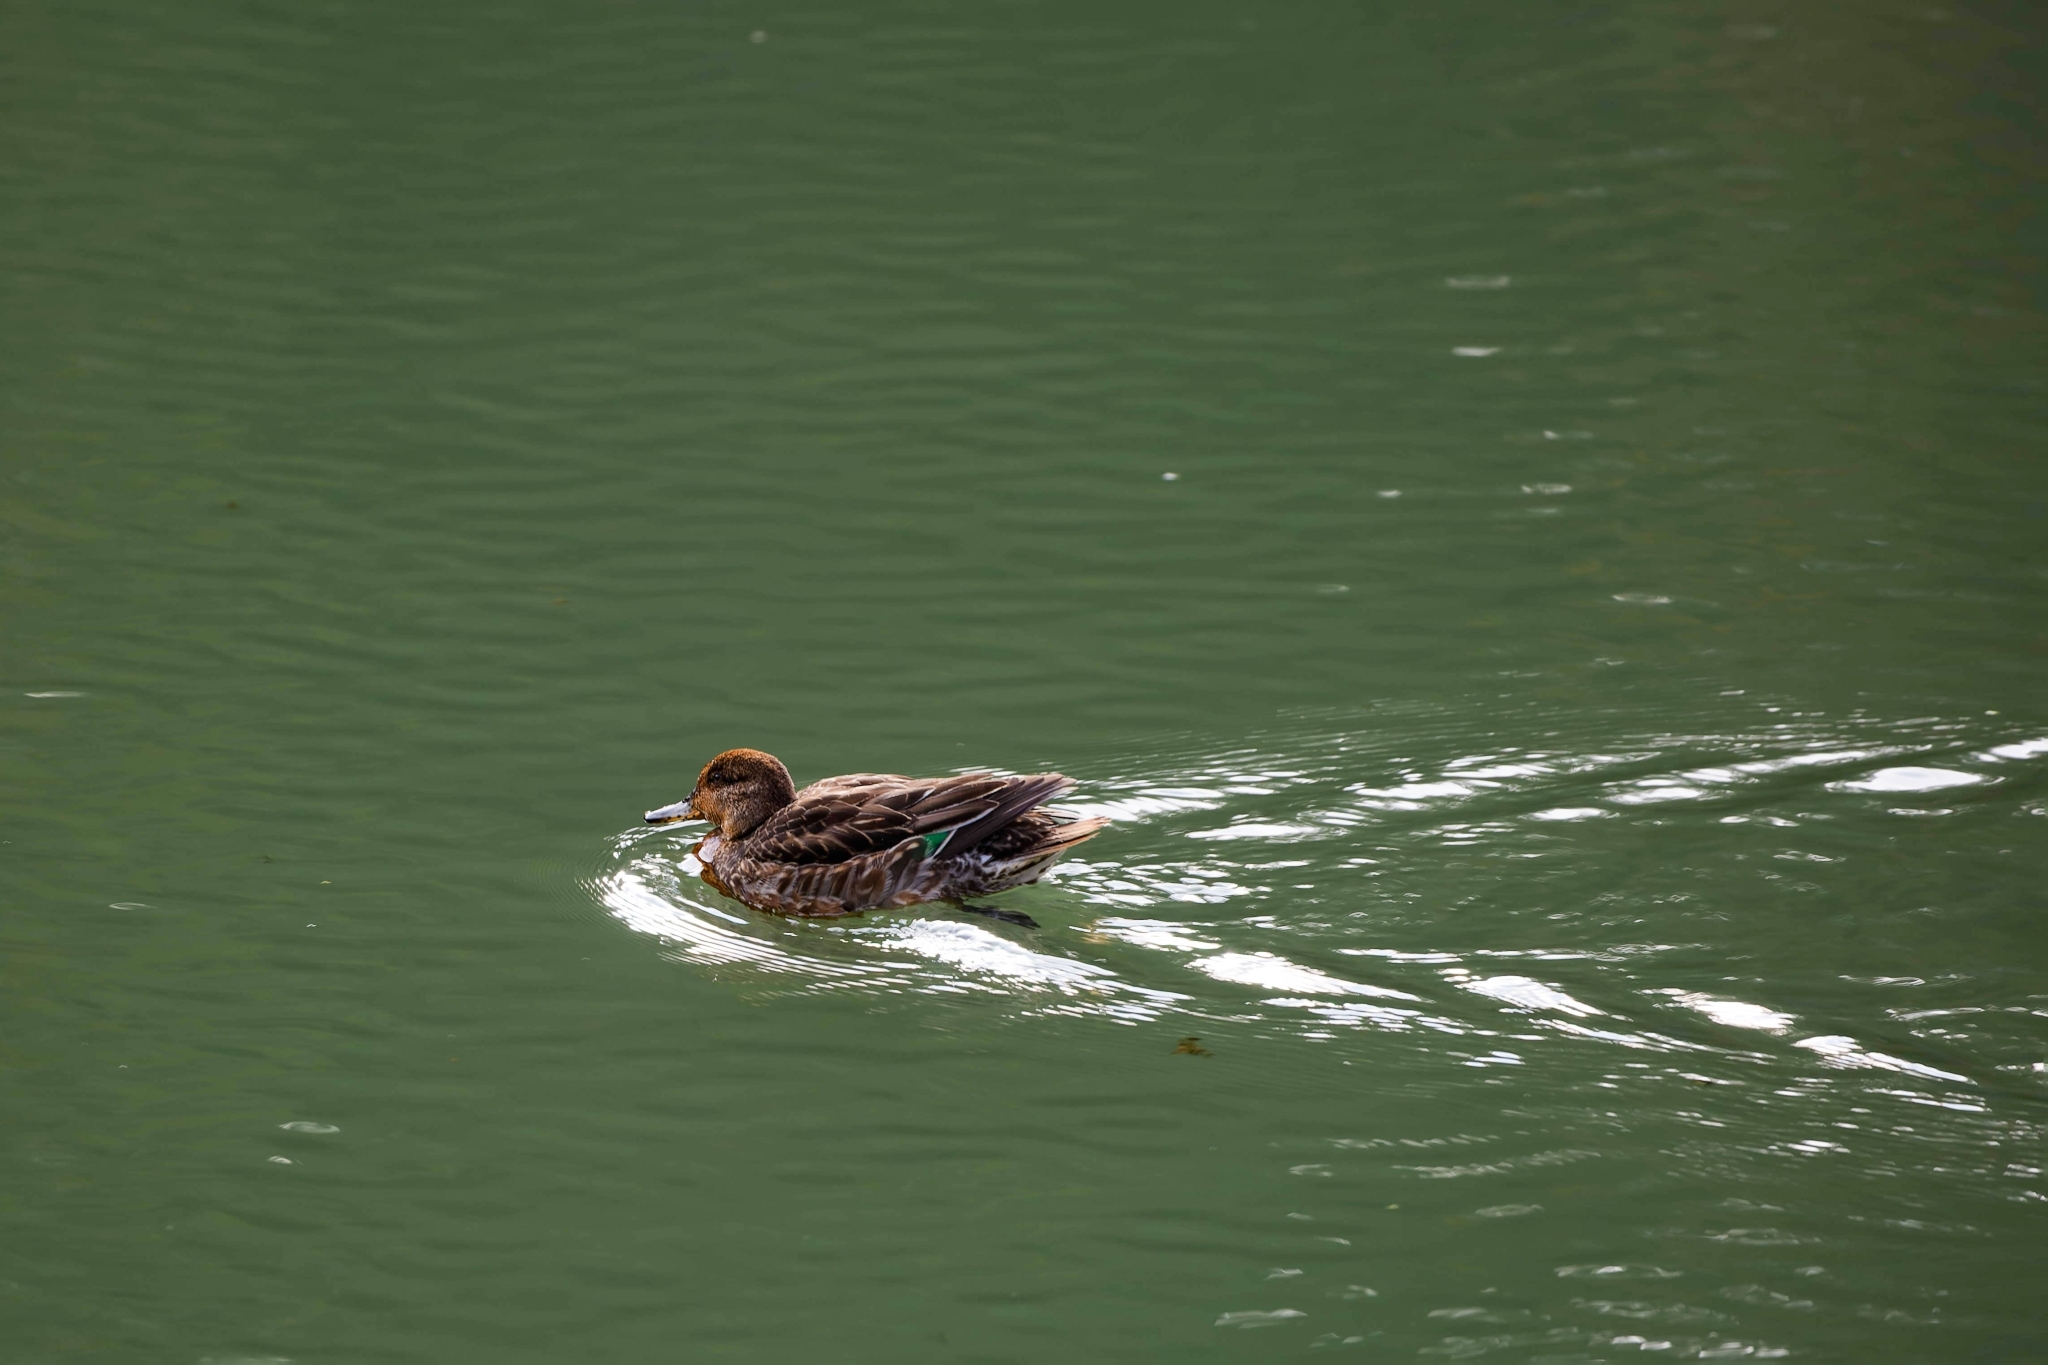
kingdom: Animalia
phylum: Chordata
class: Aves
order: Anseriformes
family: Anatidae
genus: Anas
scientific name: Anas crecca
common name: Eurasian teal
